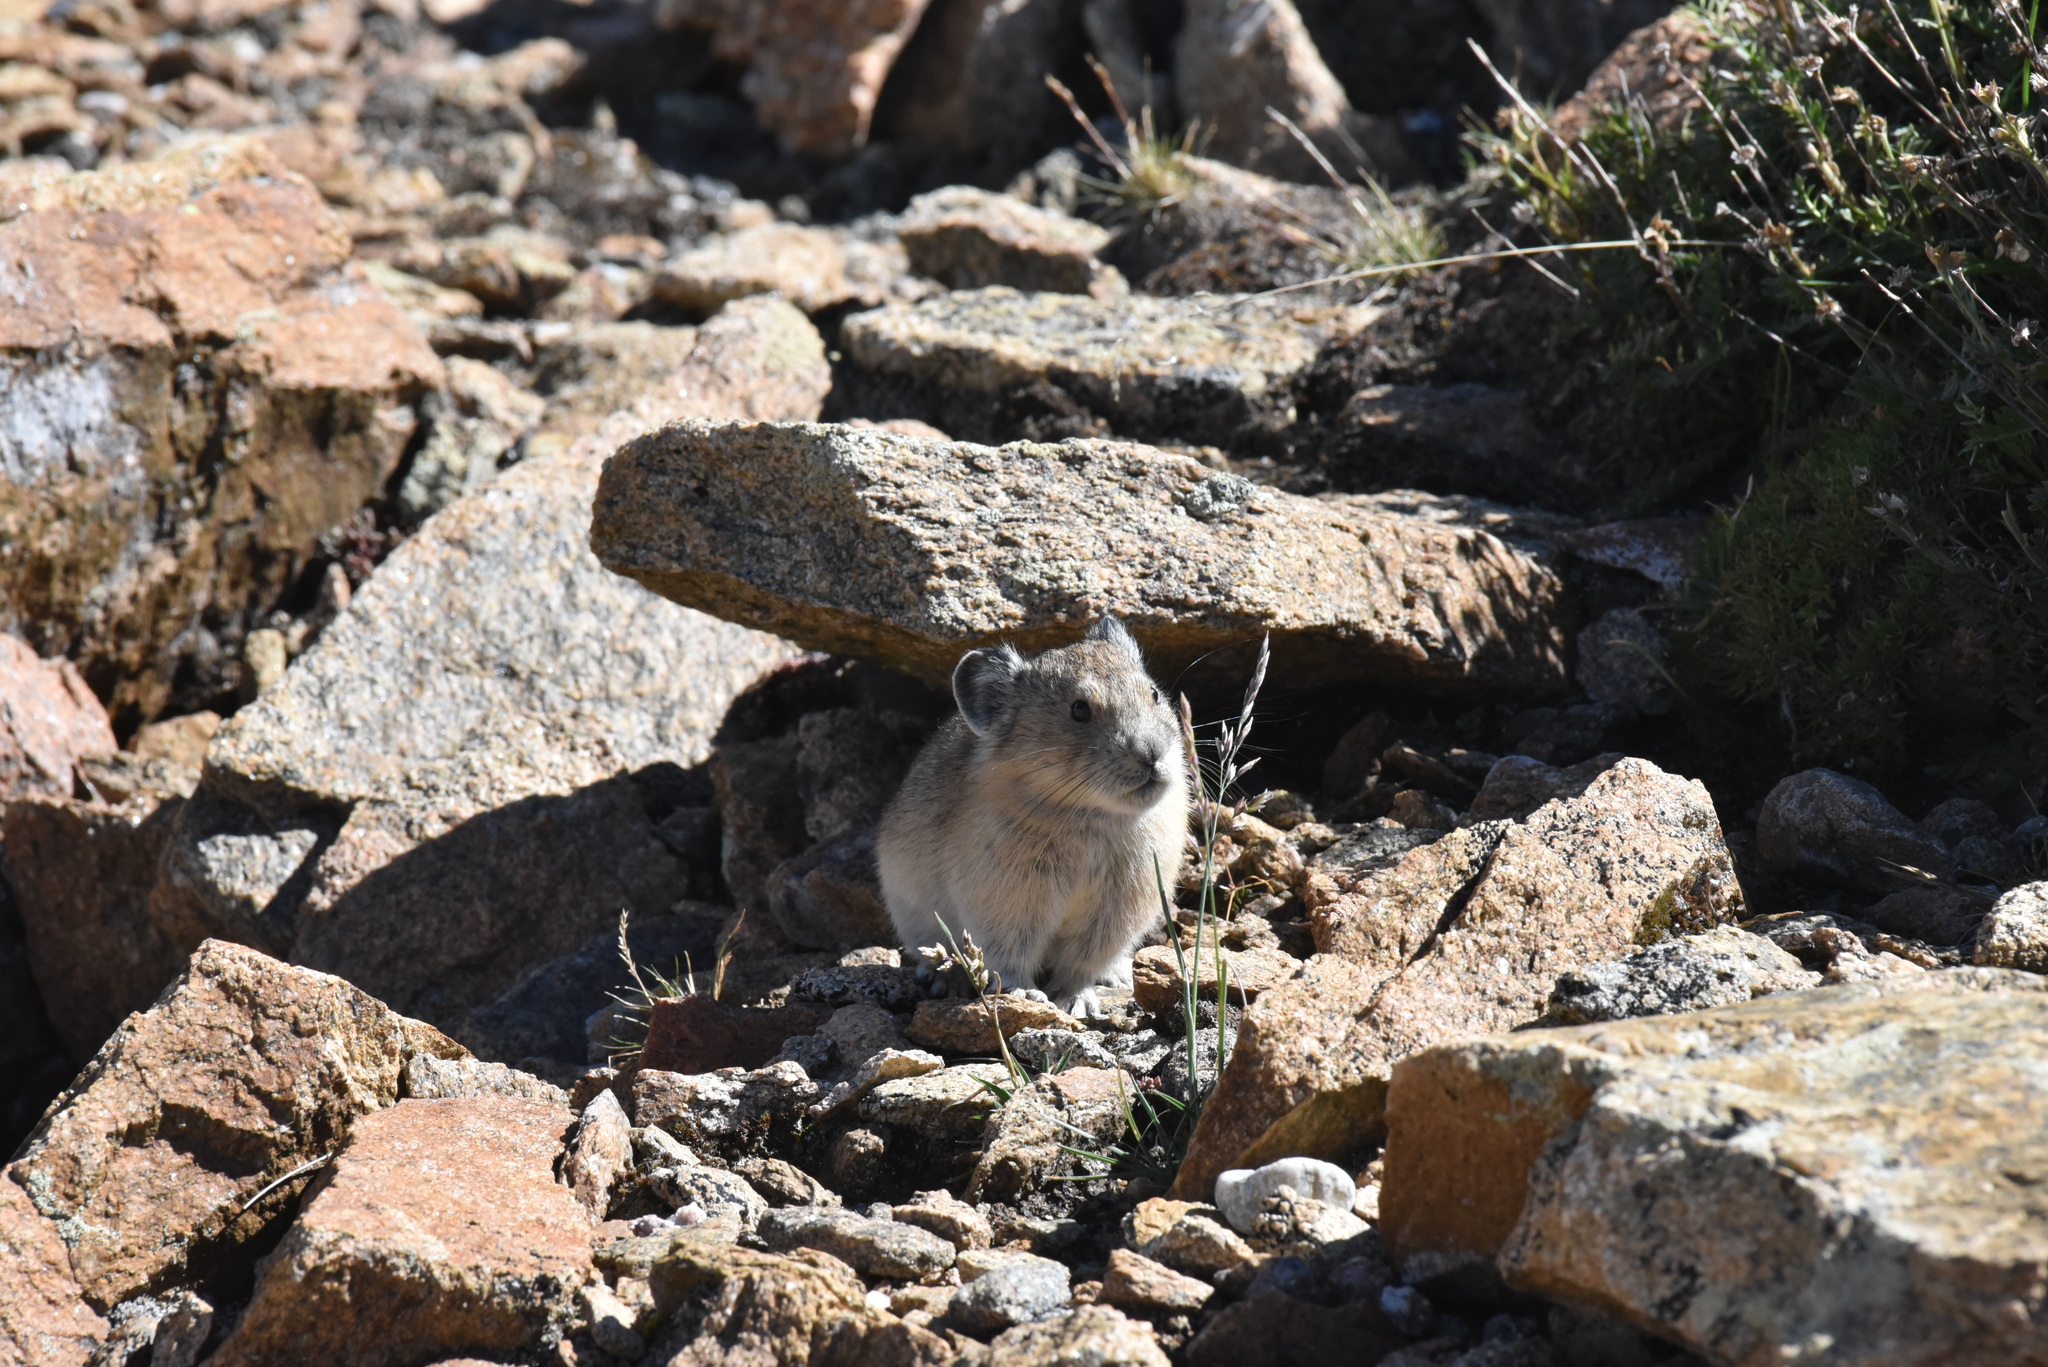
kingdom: Animalia
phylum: Chordata
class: Mammalia
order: Lagomorpha
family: Ochotonidae
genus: Ochotona
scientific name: Ochotona princeps
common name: American pika
